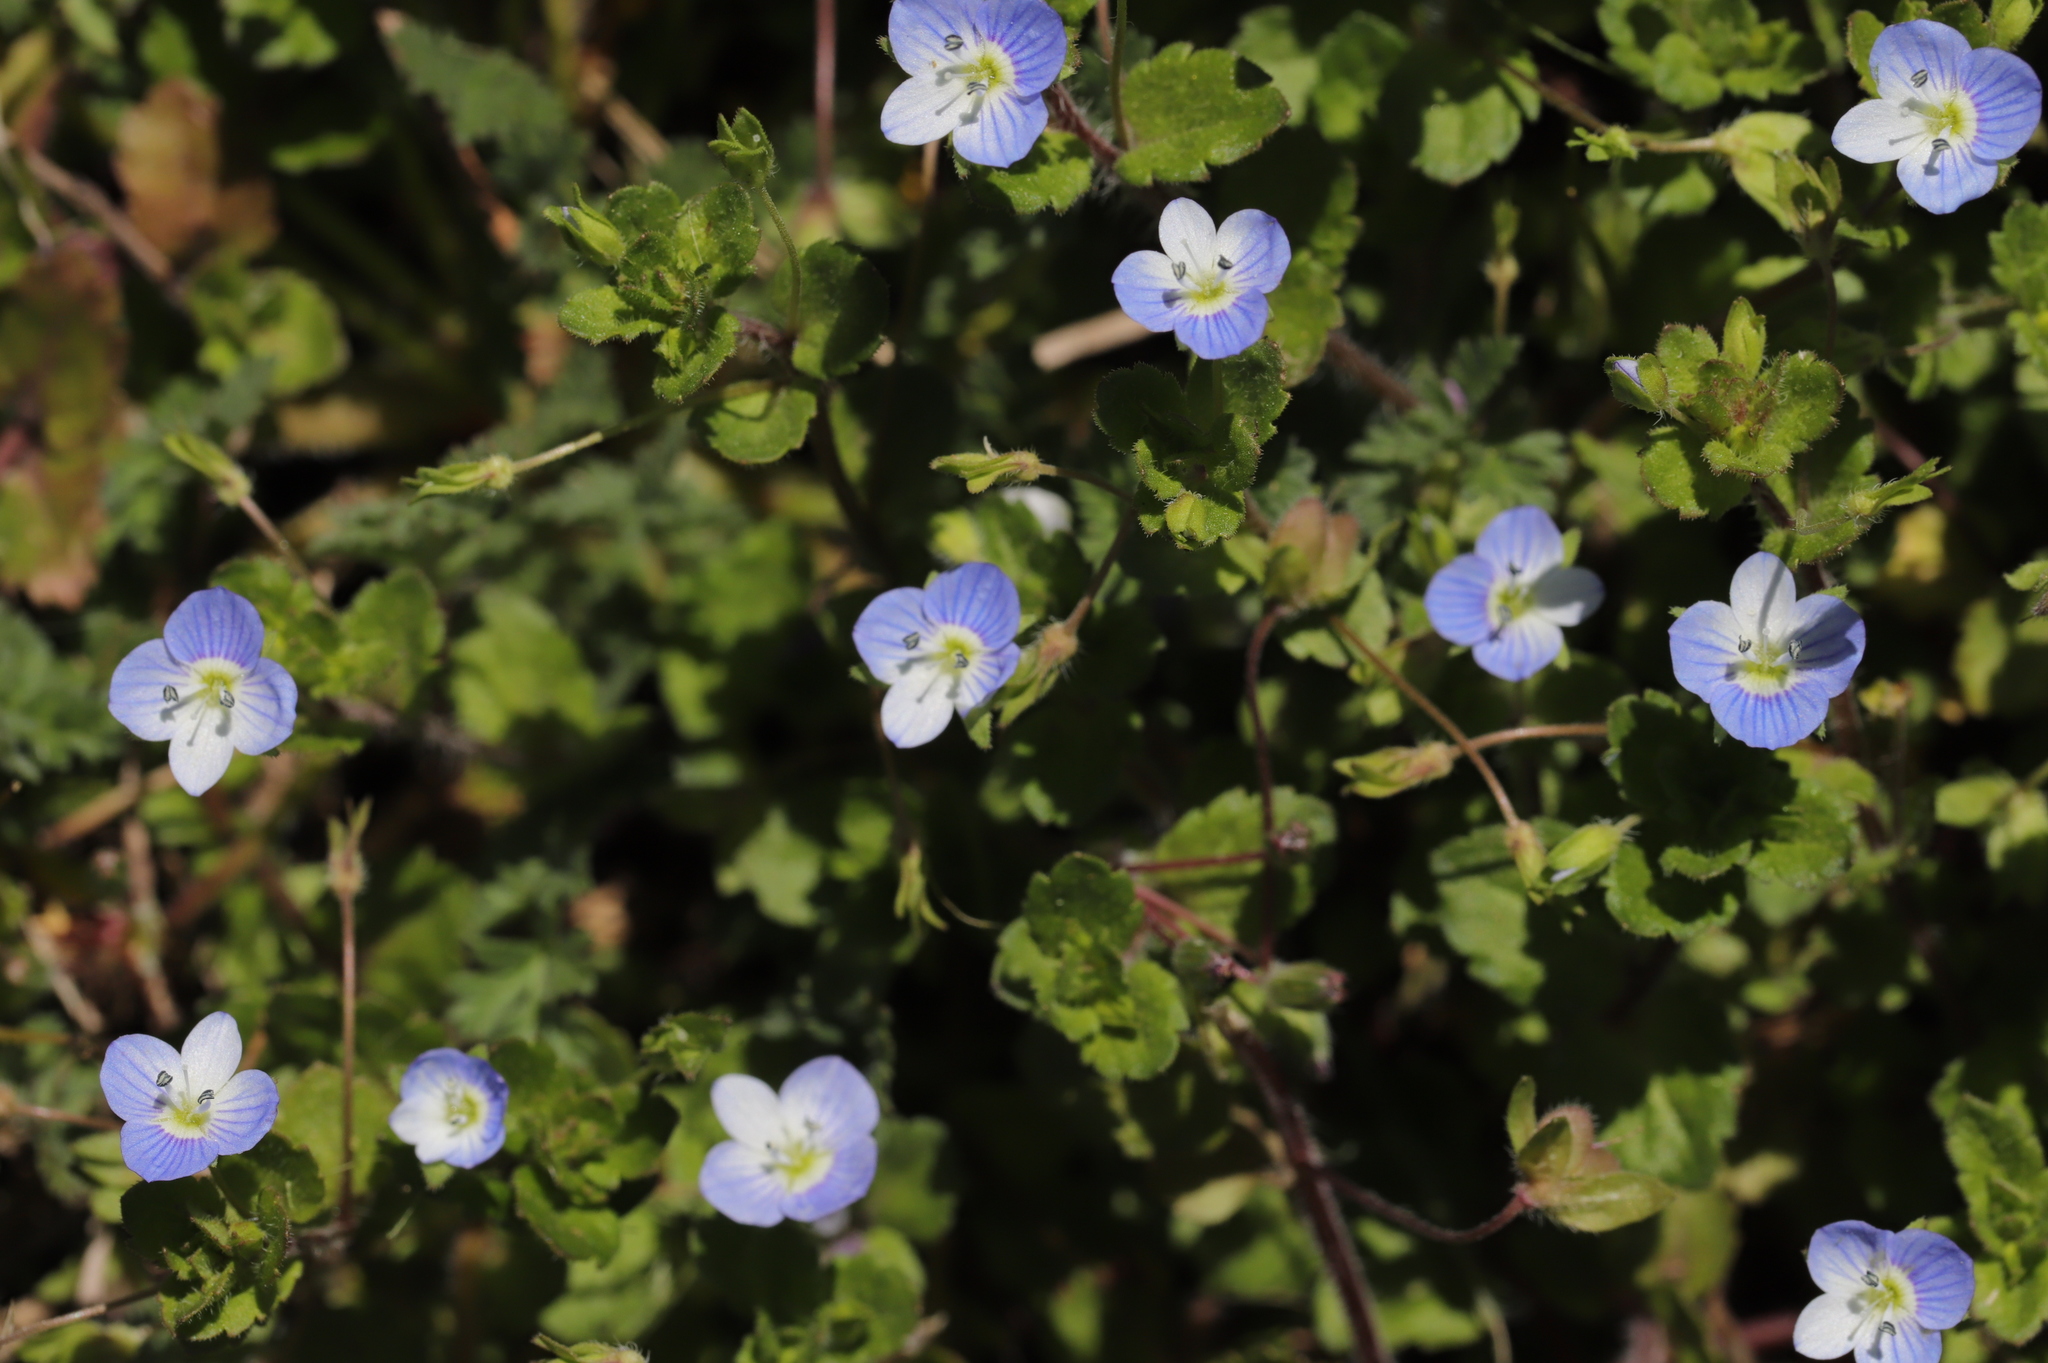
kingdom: Plantae
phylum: Tracheophyta
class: Magnoliopsida
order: Lamiales
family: Plantaginaceae
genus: Veronica
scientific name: Veronica persica
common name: Common field-speedwell
